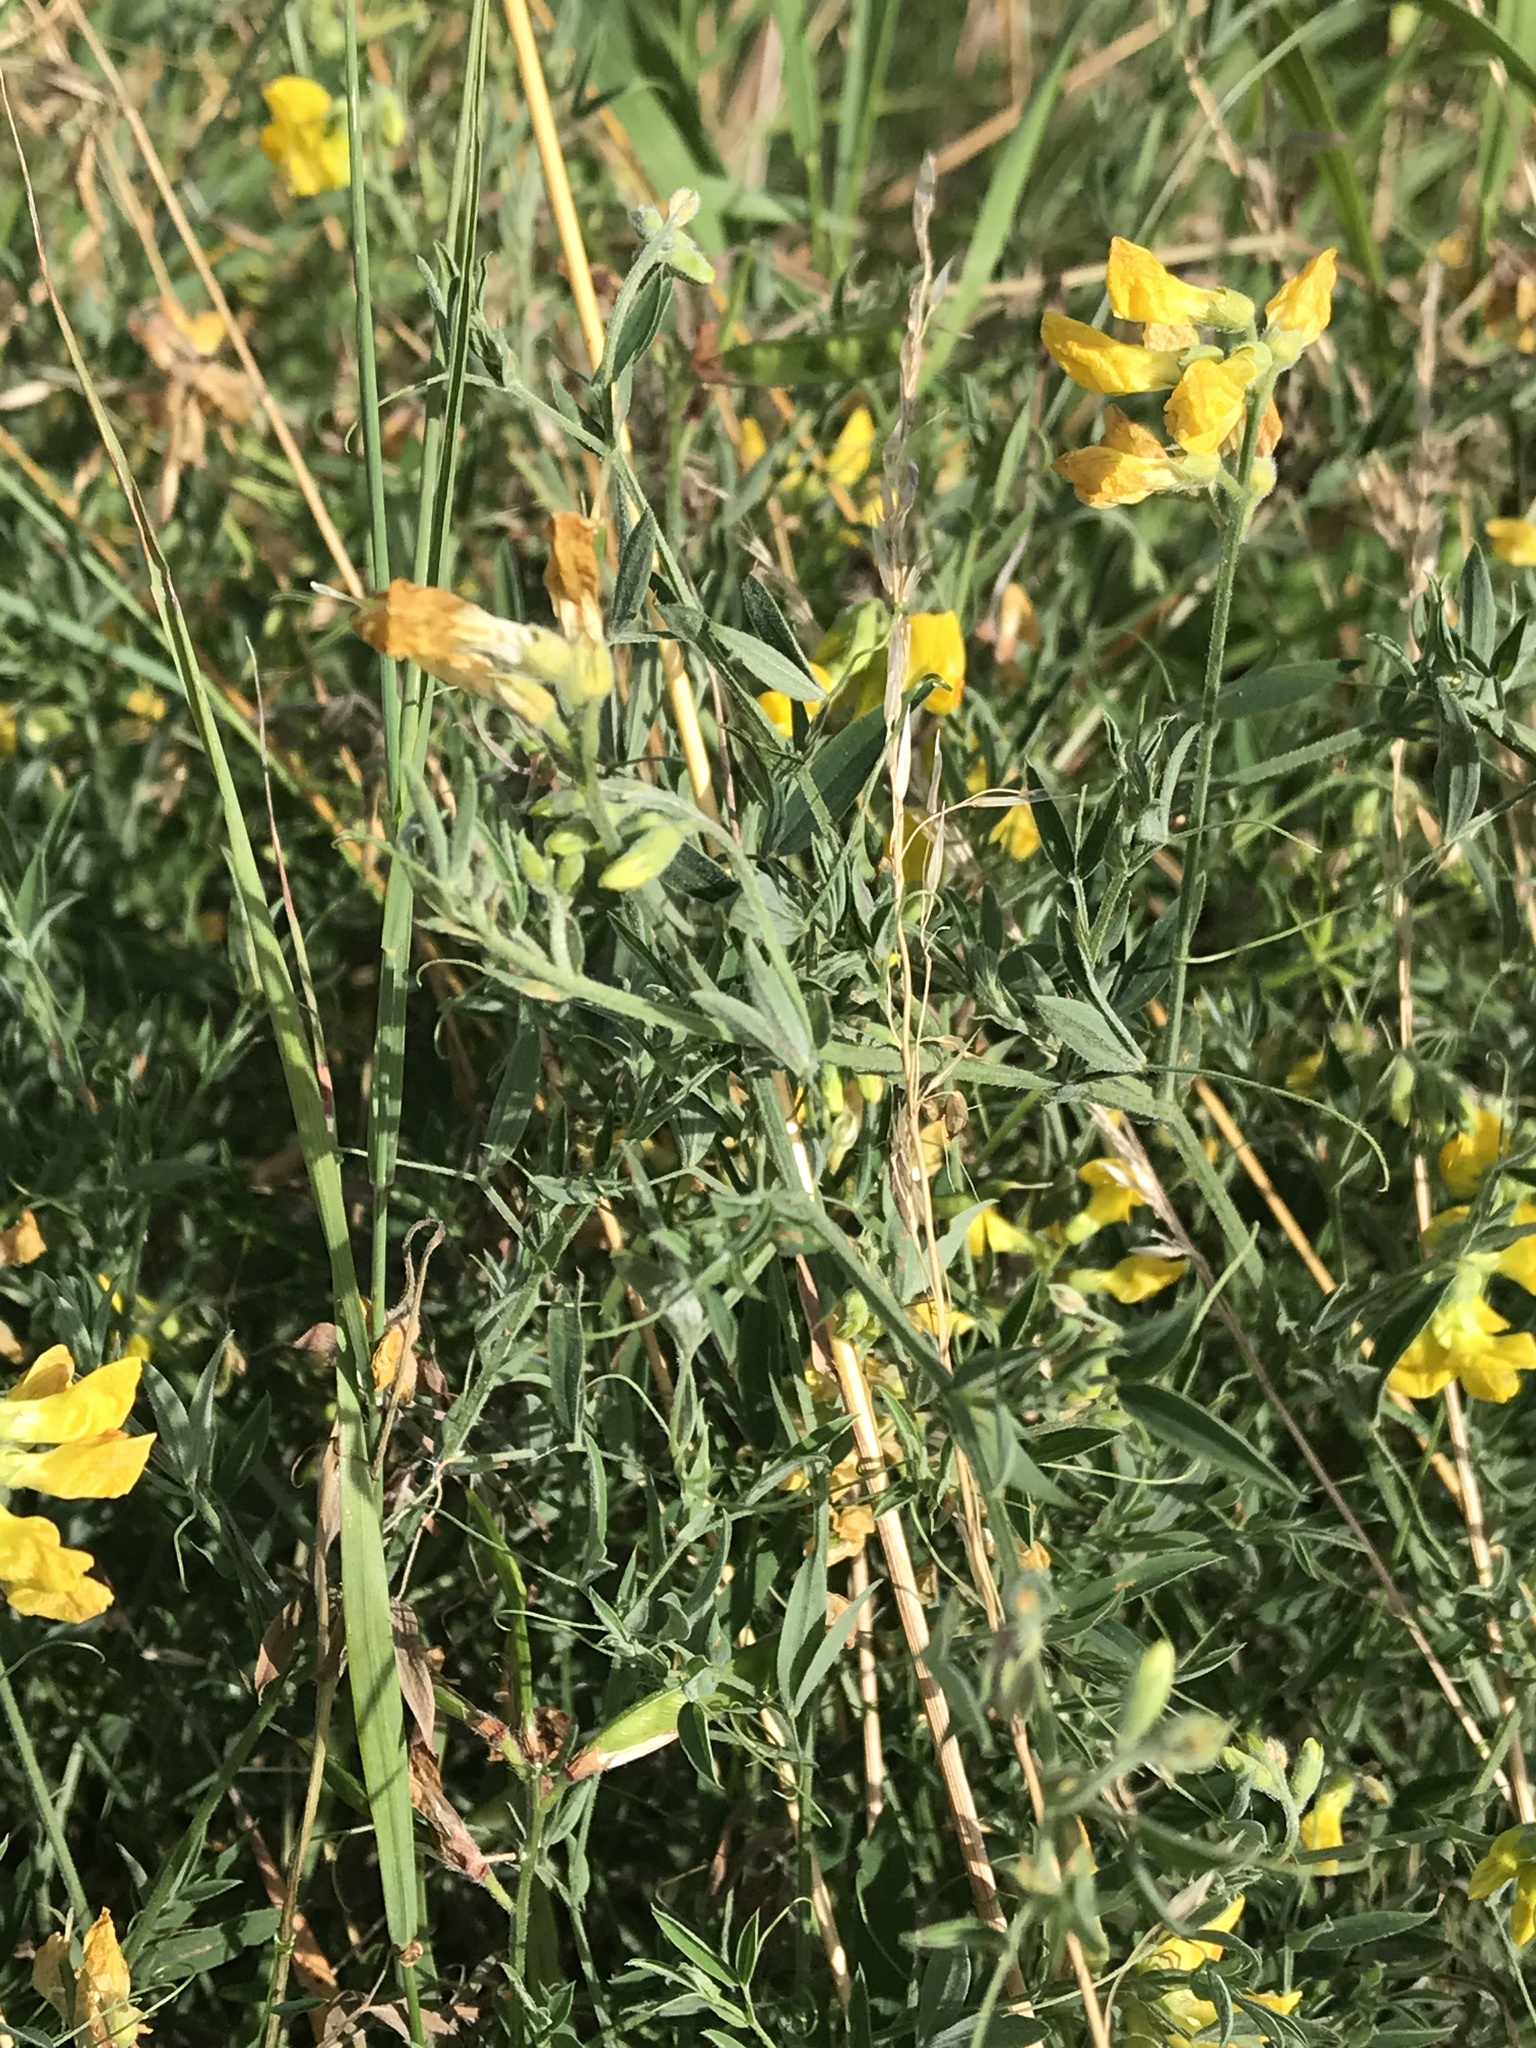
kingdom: Plantae
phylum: Tracheophyta
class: Magnoliopsida
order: Fabales
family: Fabaceae
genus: Lathyrus
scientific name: Lathyrus pratensis
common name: Meadow vetchling
